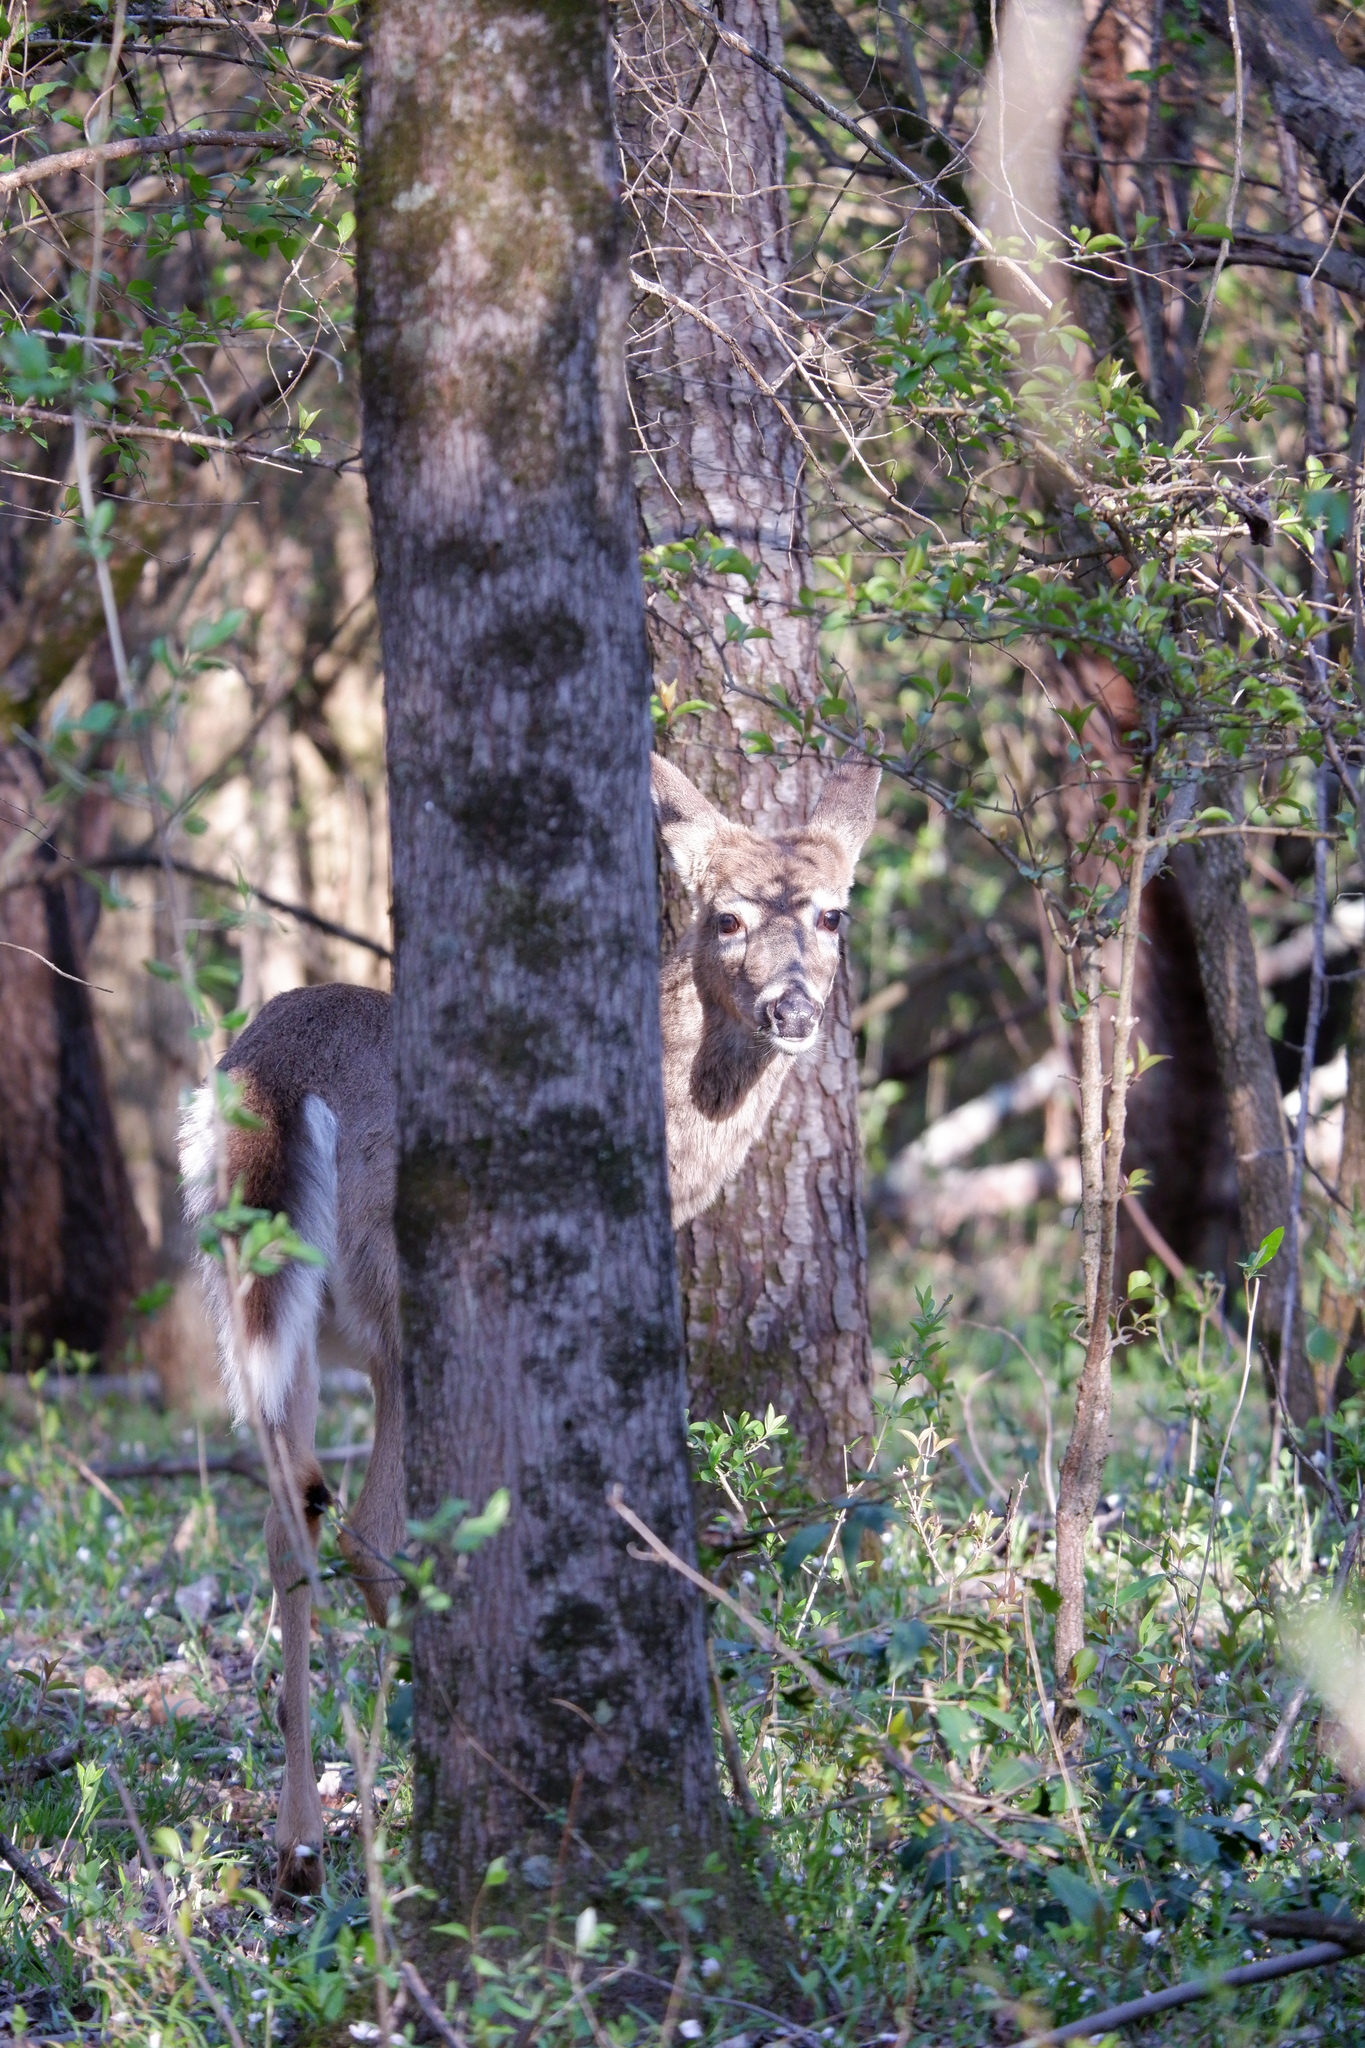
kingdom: Animalia
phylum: Chordata
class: Mammalia
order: Artiodactyla
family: Cervidae
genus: Odocoileus
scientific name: Odocoileus virginianus
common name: White-tailed deer
